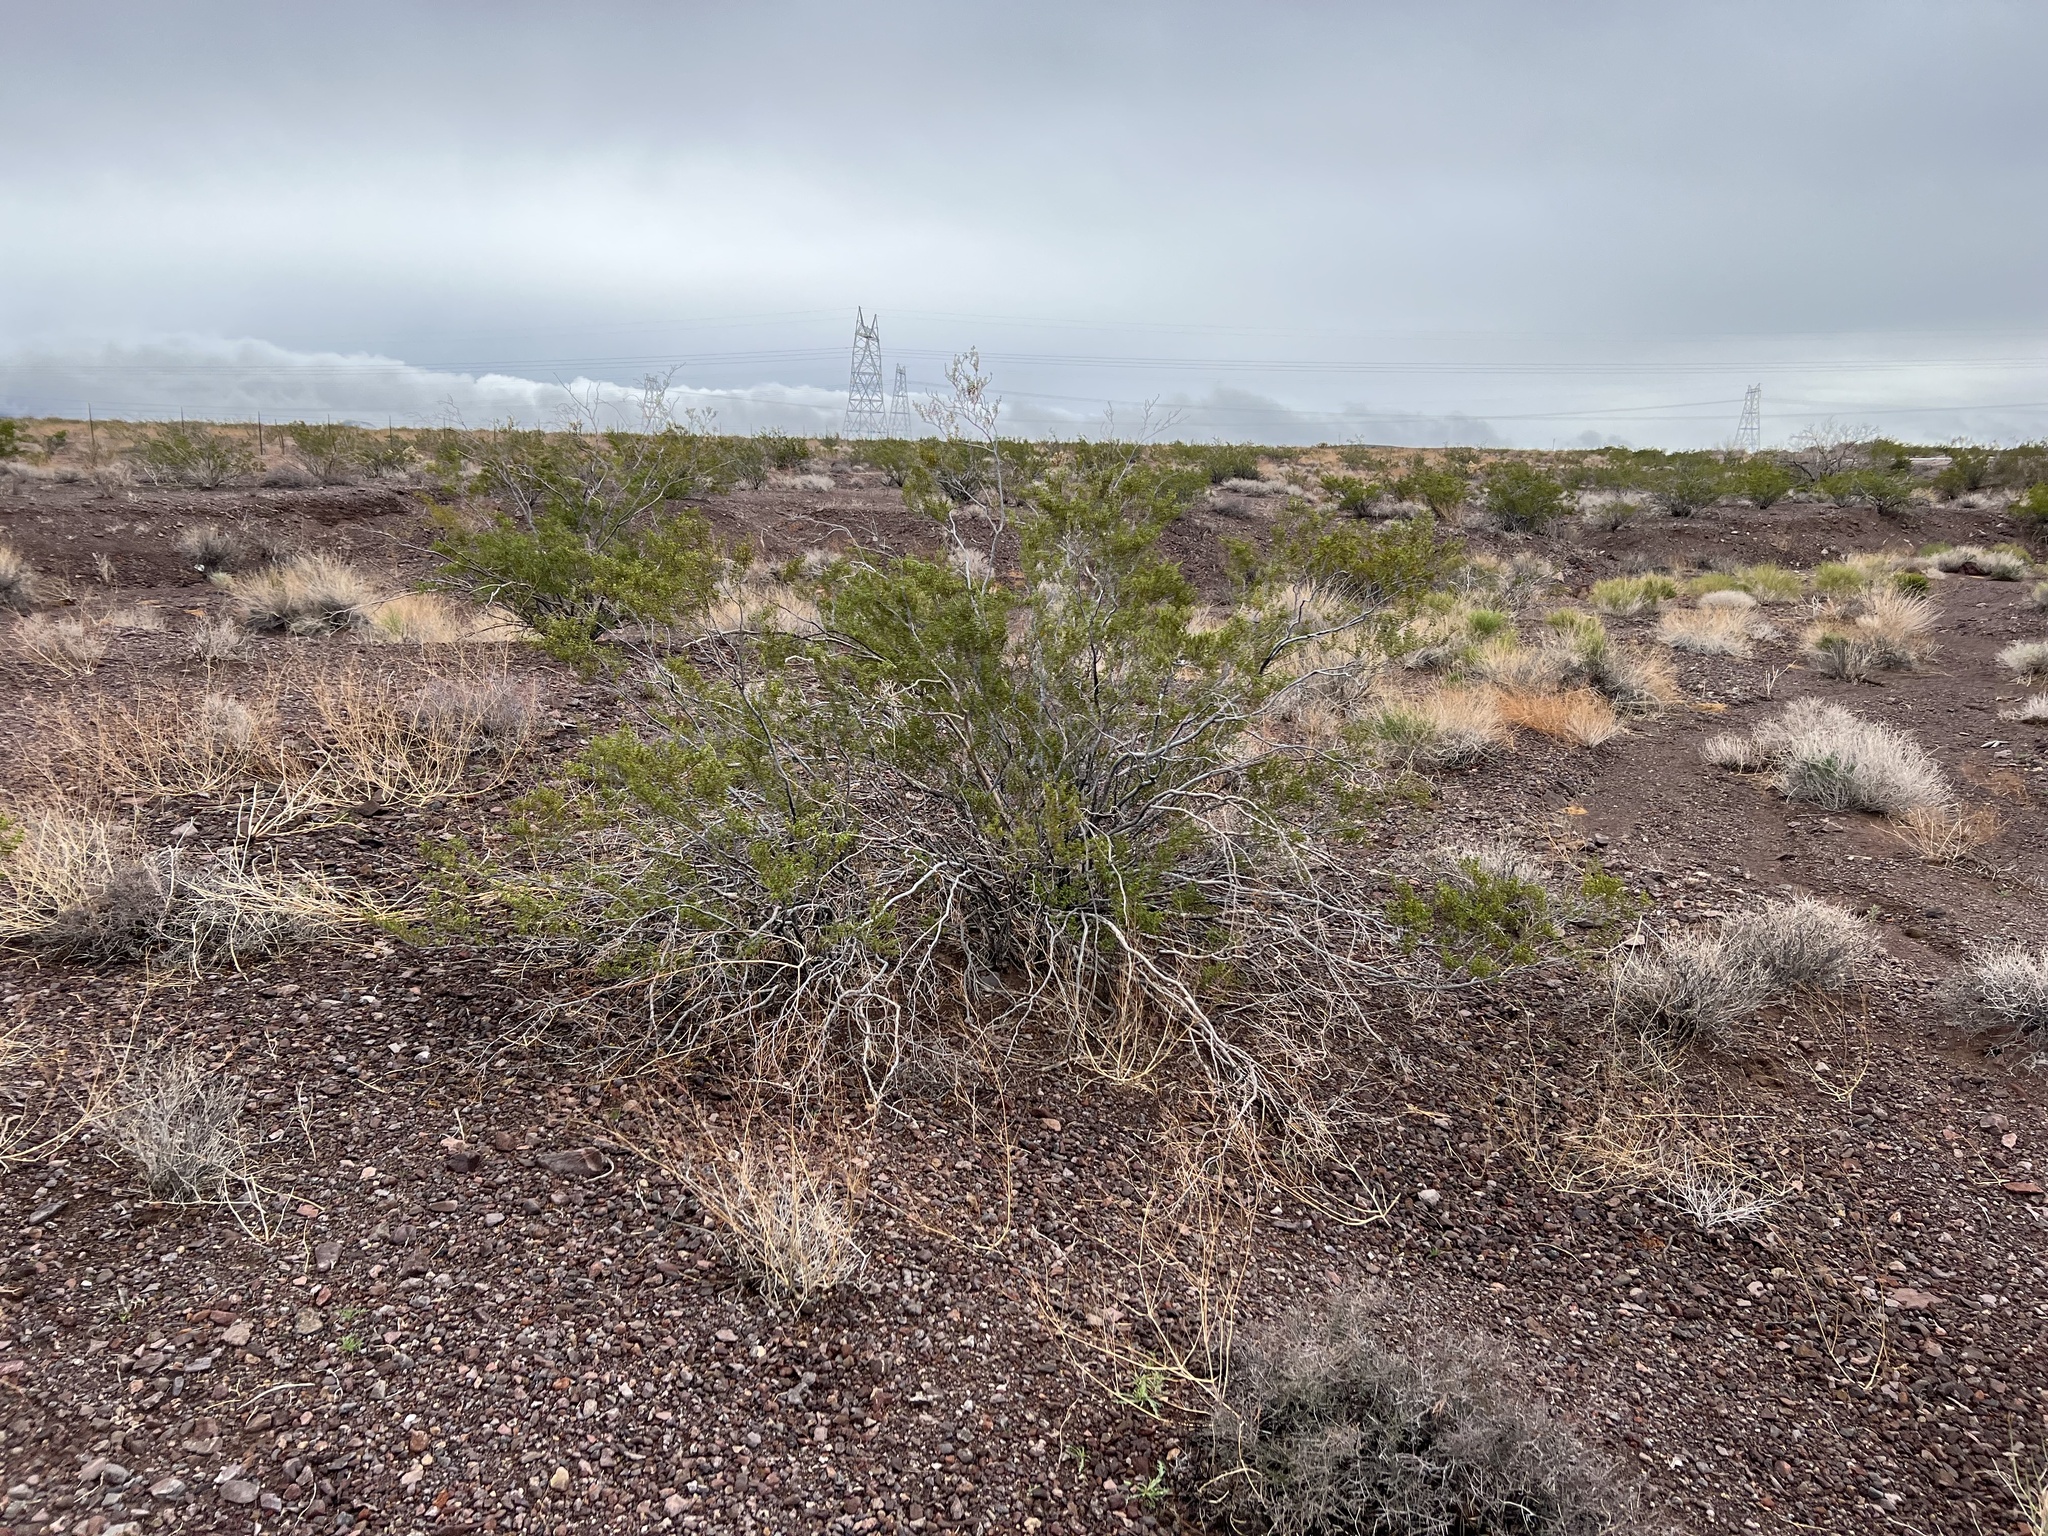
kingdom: Plantae
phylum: Tracheophyta
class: Magnoliopsida
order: Zygophyllales
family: Zygophyllaceae
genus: Larrea
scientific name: Larrea tridentata
